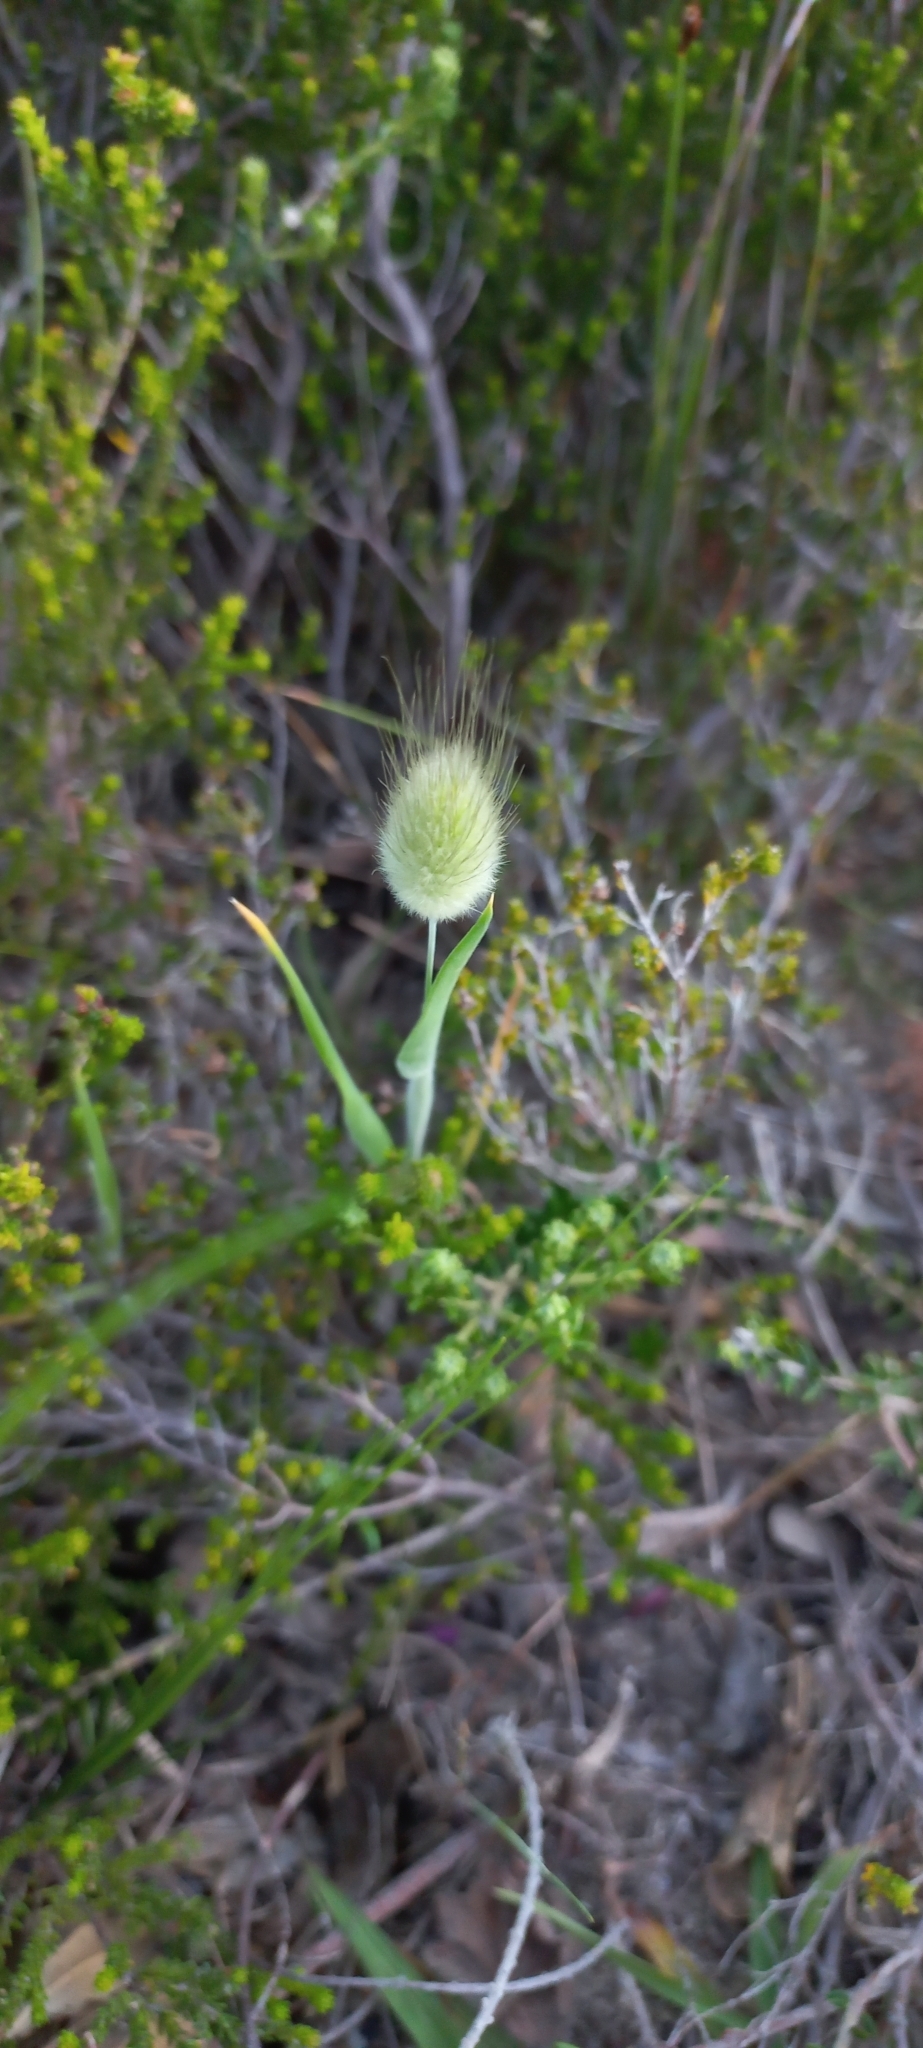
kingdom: Plantae
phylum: Tracheophyta
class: Liliopsida
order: Poales
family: Poaceae
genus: Lagurus
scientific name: Lagurus ovatus
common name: Hare's-tail
